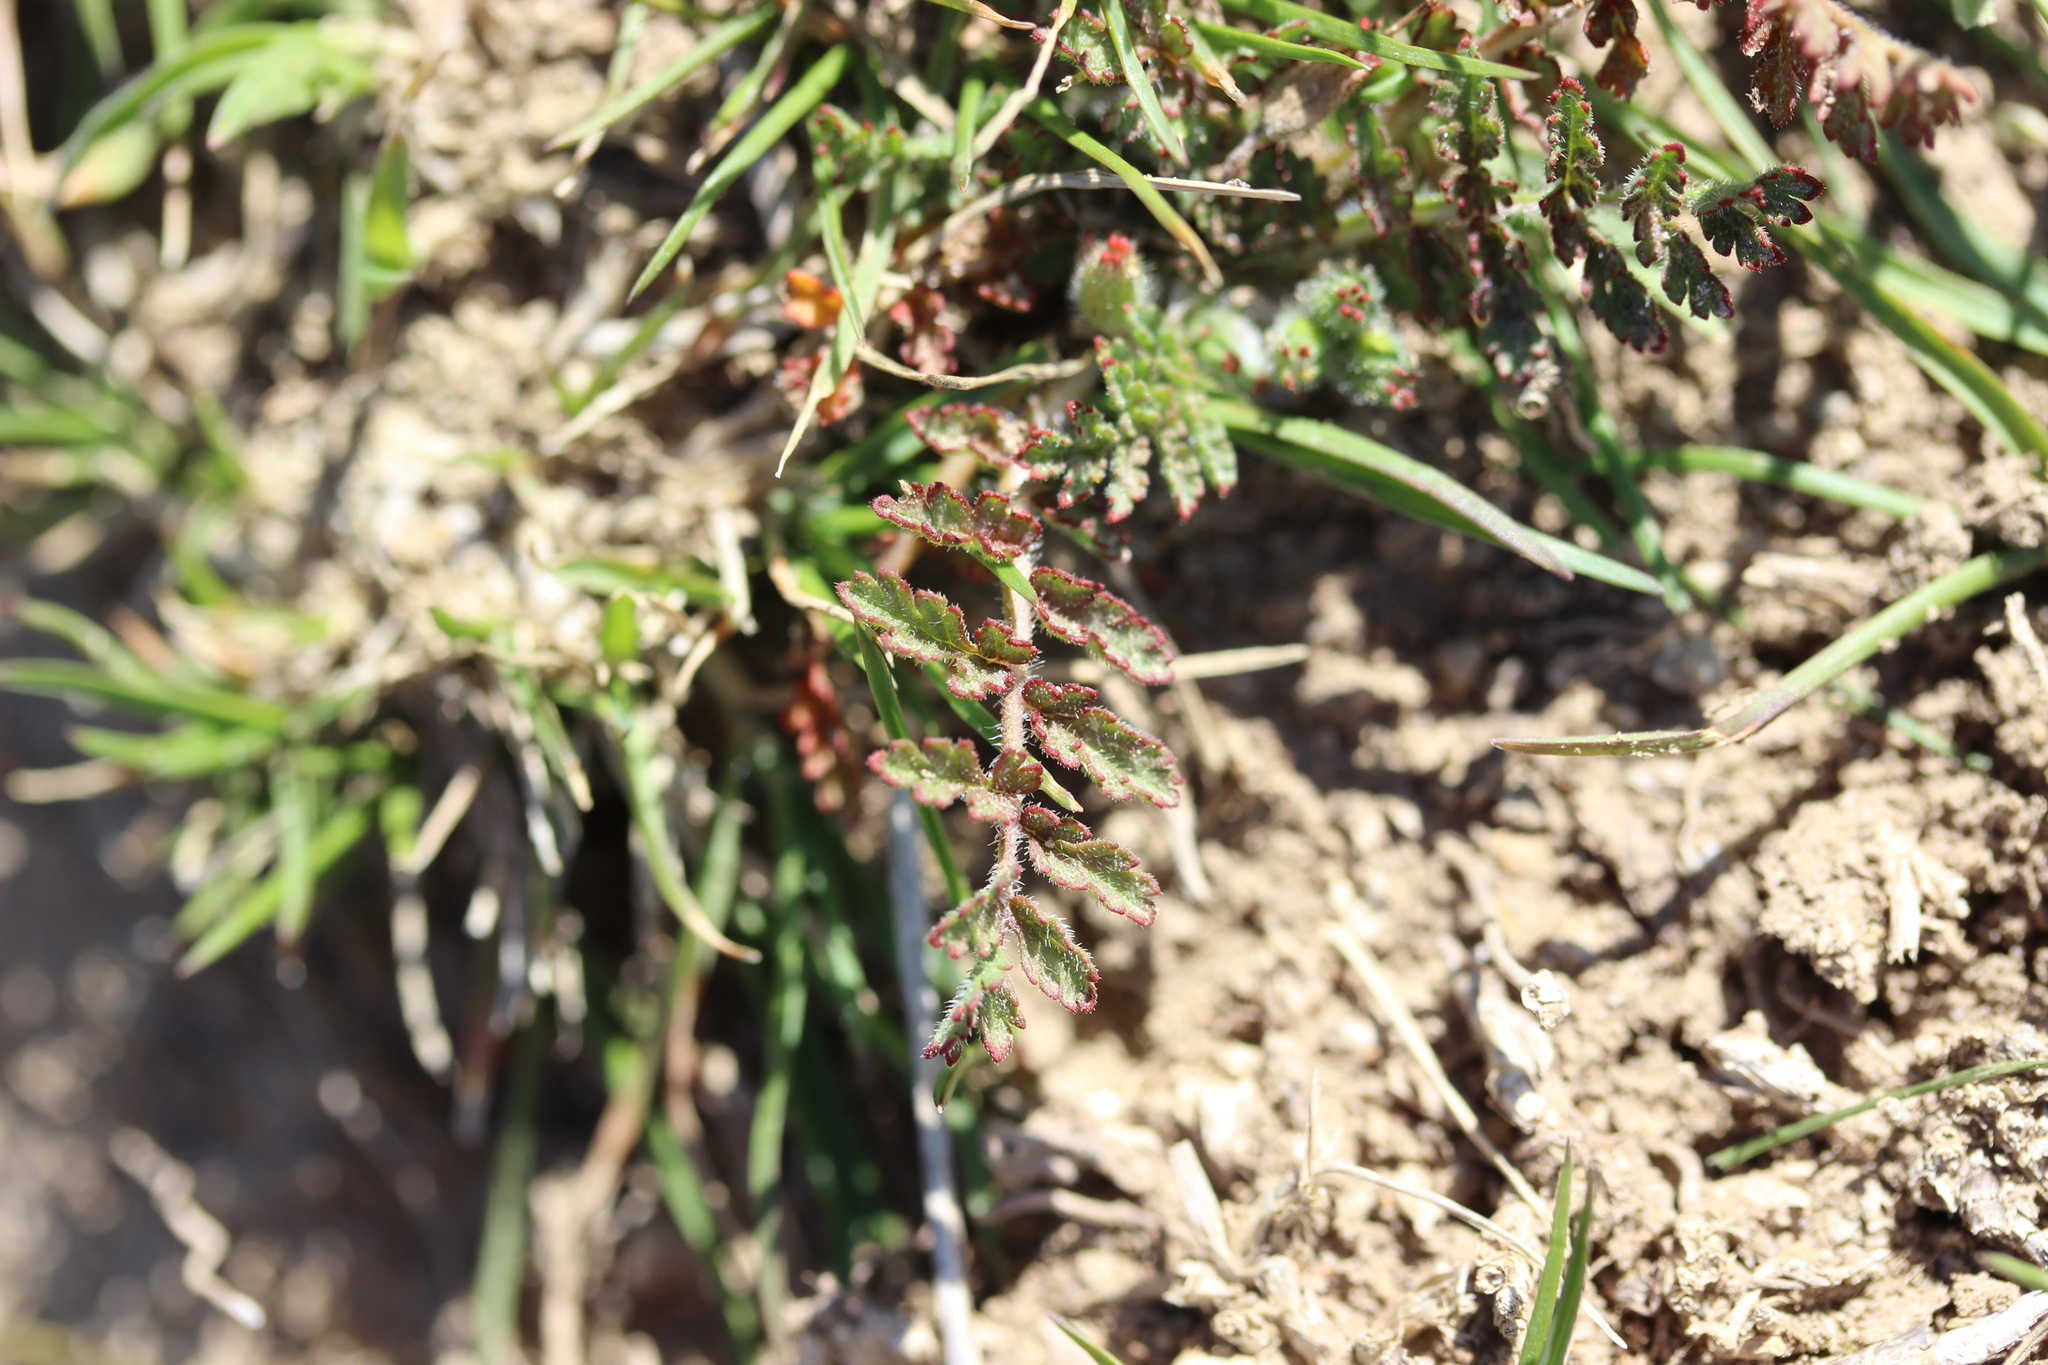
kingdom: Plantae
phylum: Tracheophyta
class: Magnoliopsida
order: Geraniales
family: Geraniaceae
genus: Erodium
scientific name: Erodium cicutarium
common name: Common stork's-bill
